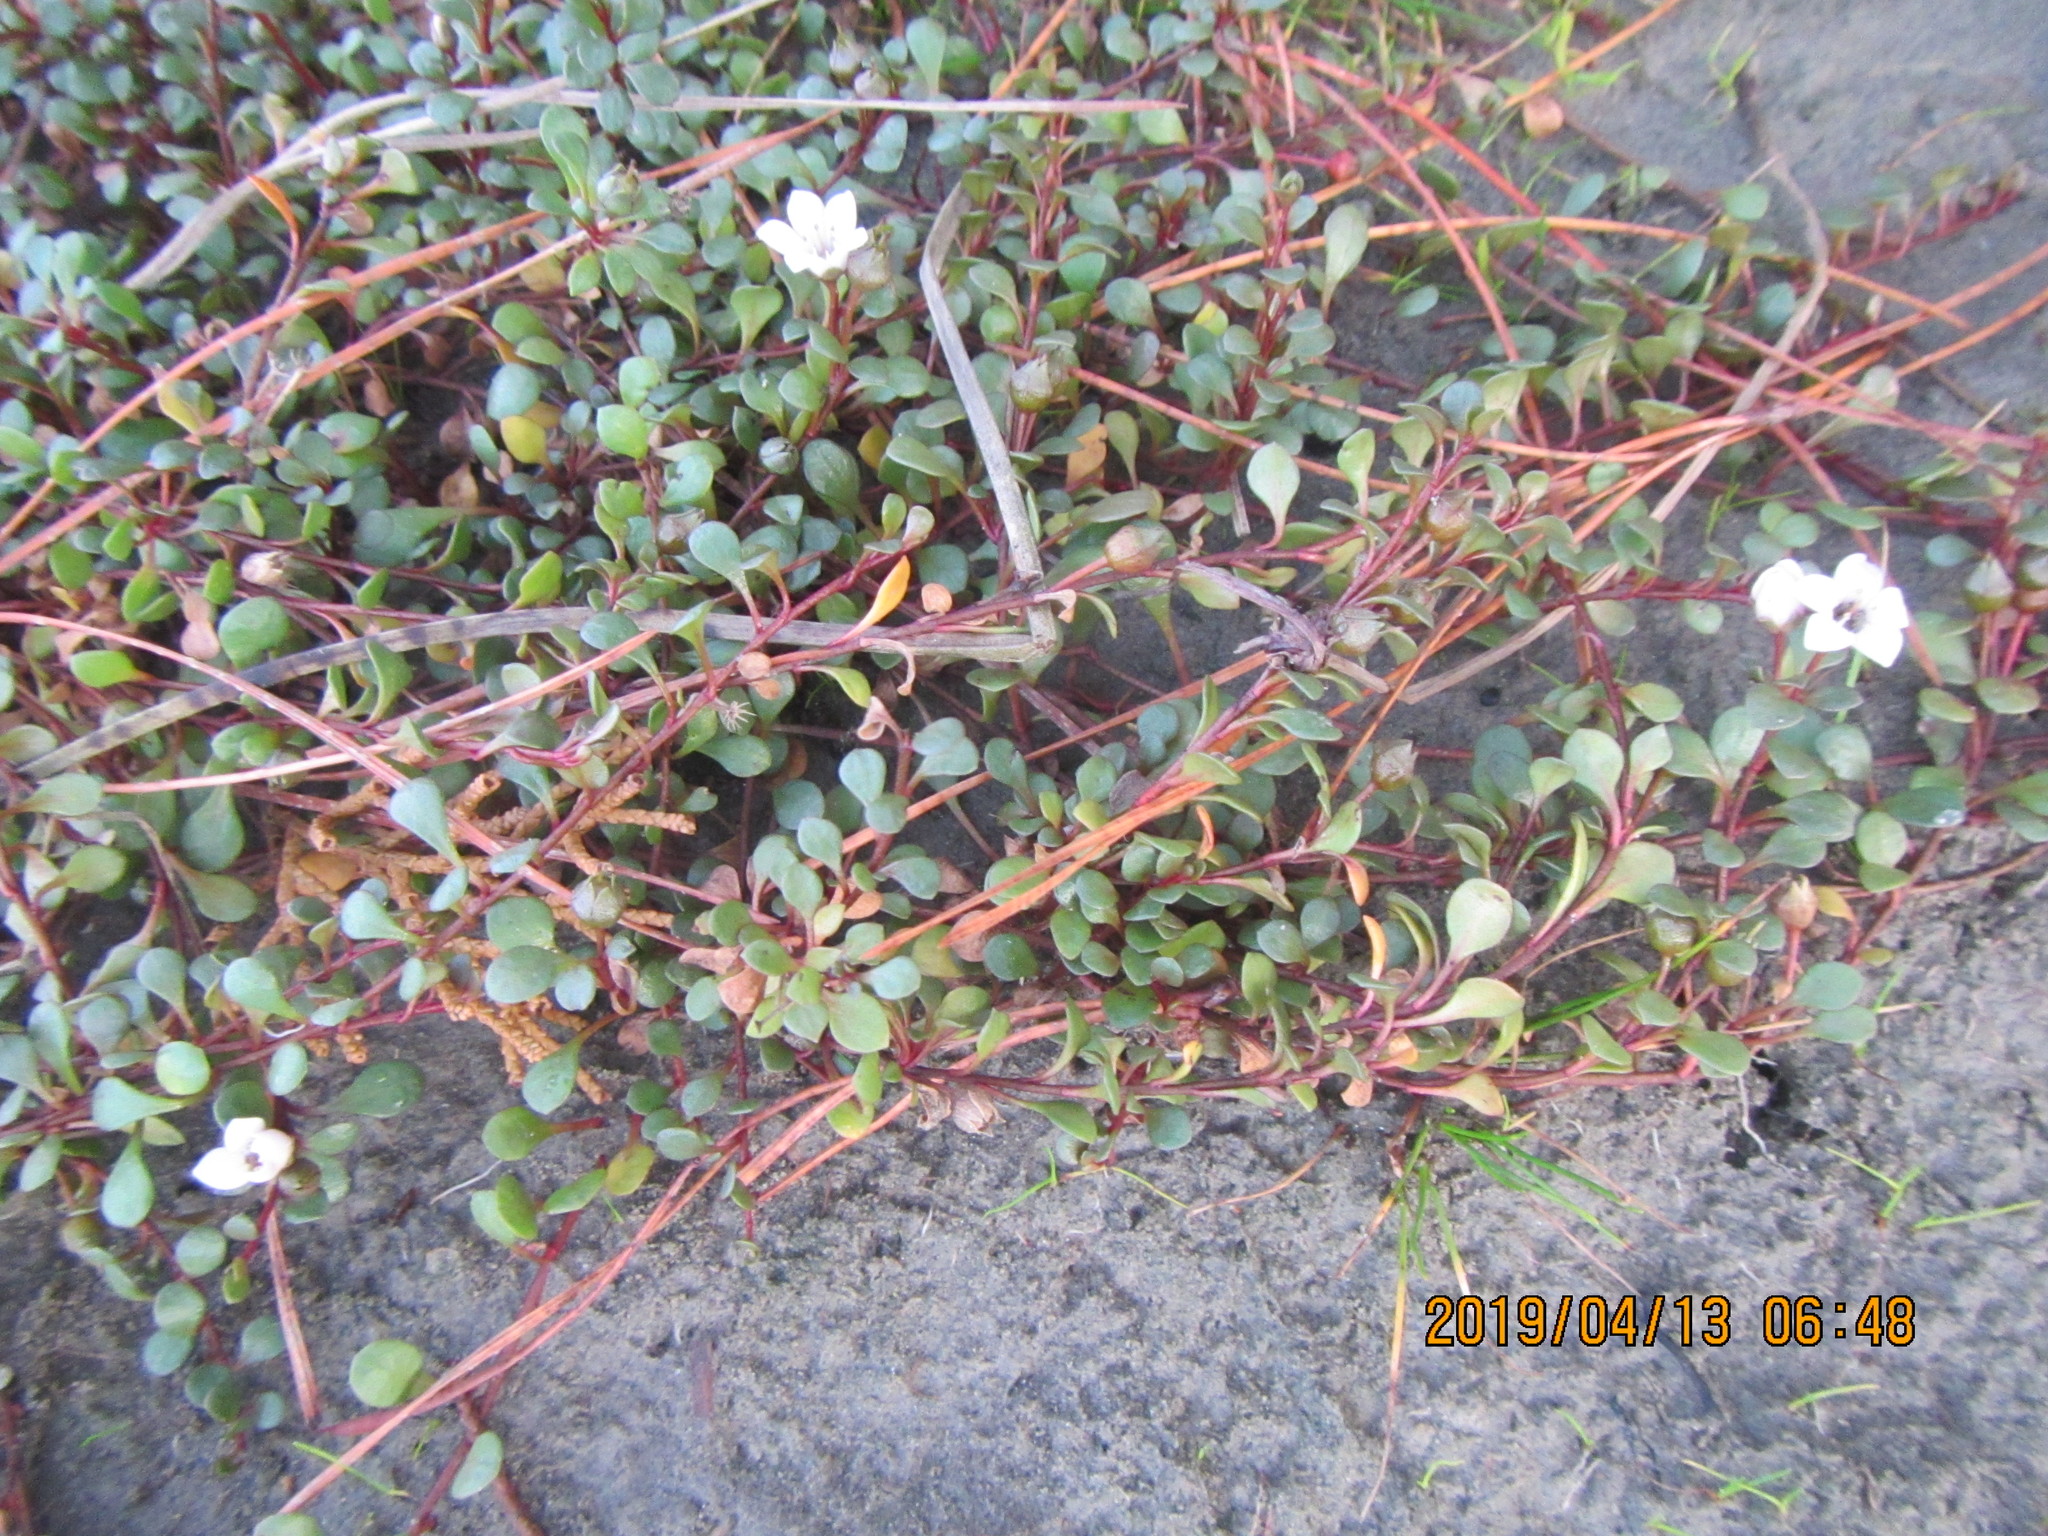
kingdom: Plantae
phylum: Tracheophyta
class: Magnoliopsida
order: Ericales
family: Primulaceae
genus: Samolus
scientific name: Samolus repens
